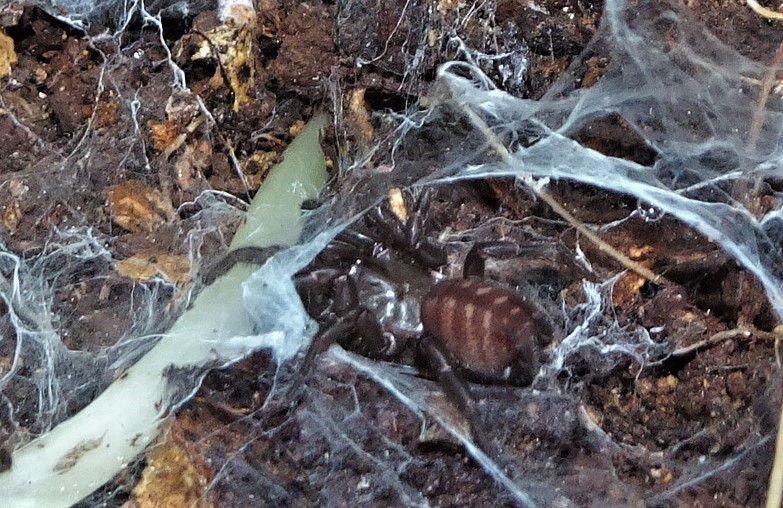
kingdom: Animalia
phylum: Arthropoda
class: Arachnida
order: Araneae
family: Euagridae
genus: Australothele
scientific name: Australothele jamiesoni
